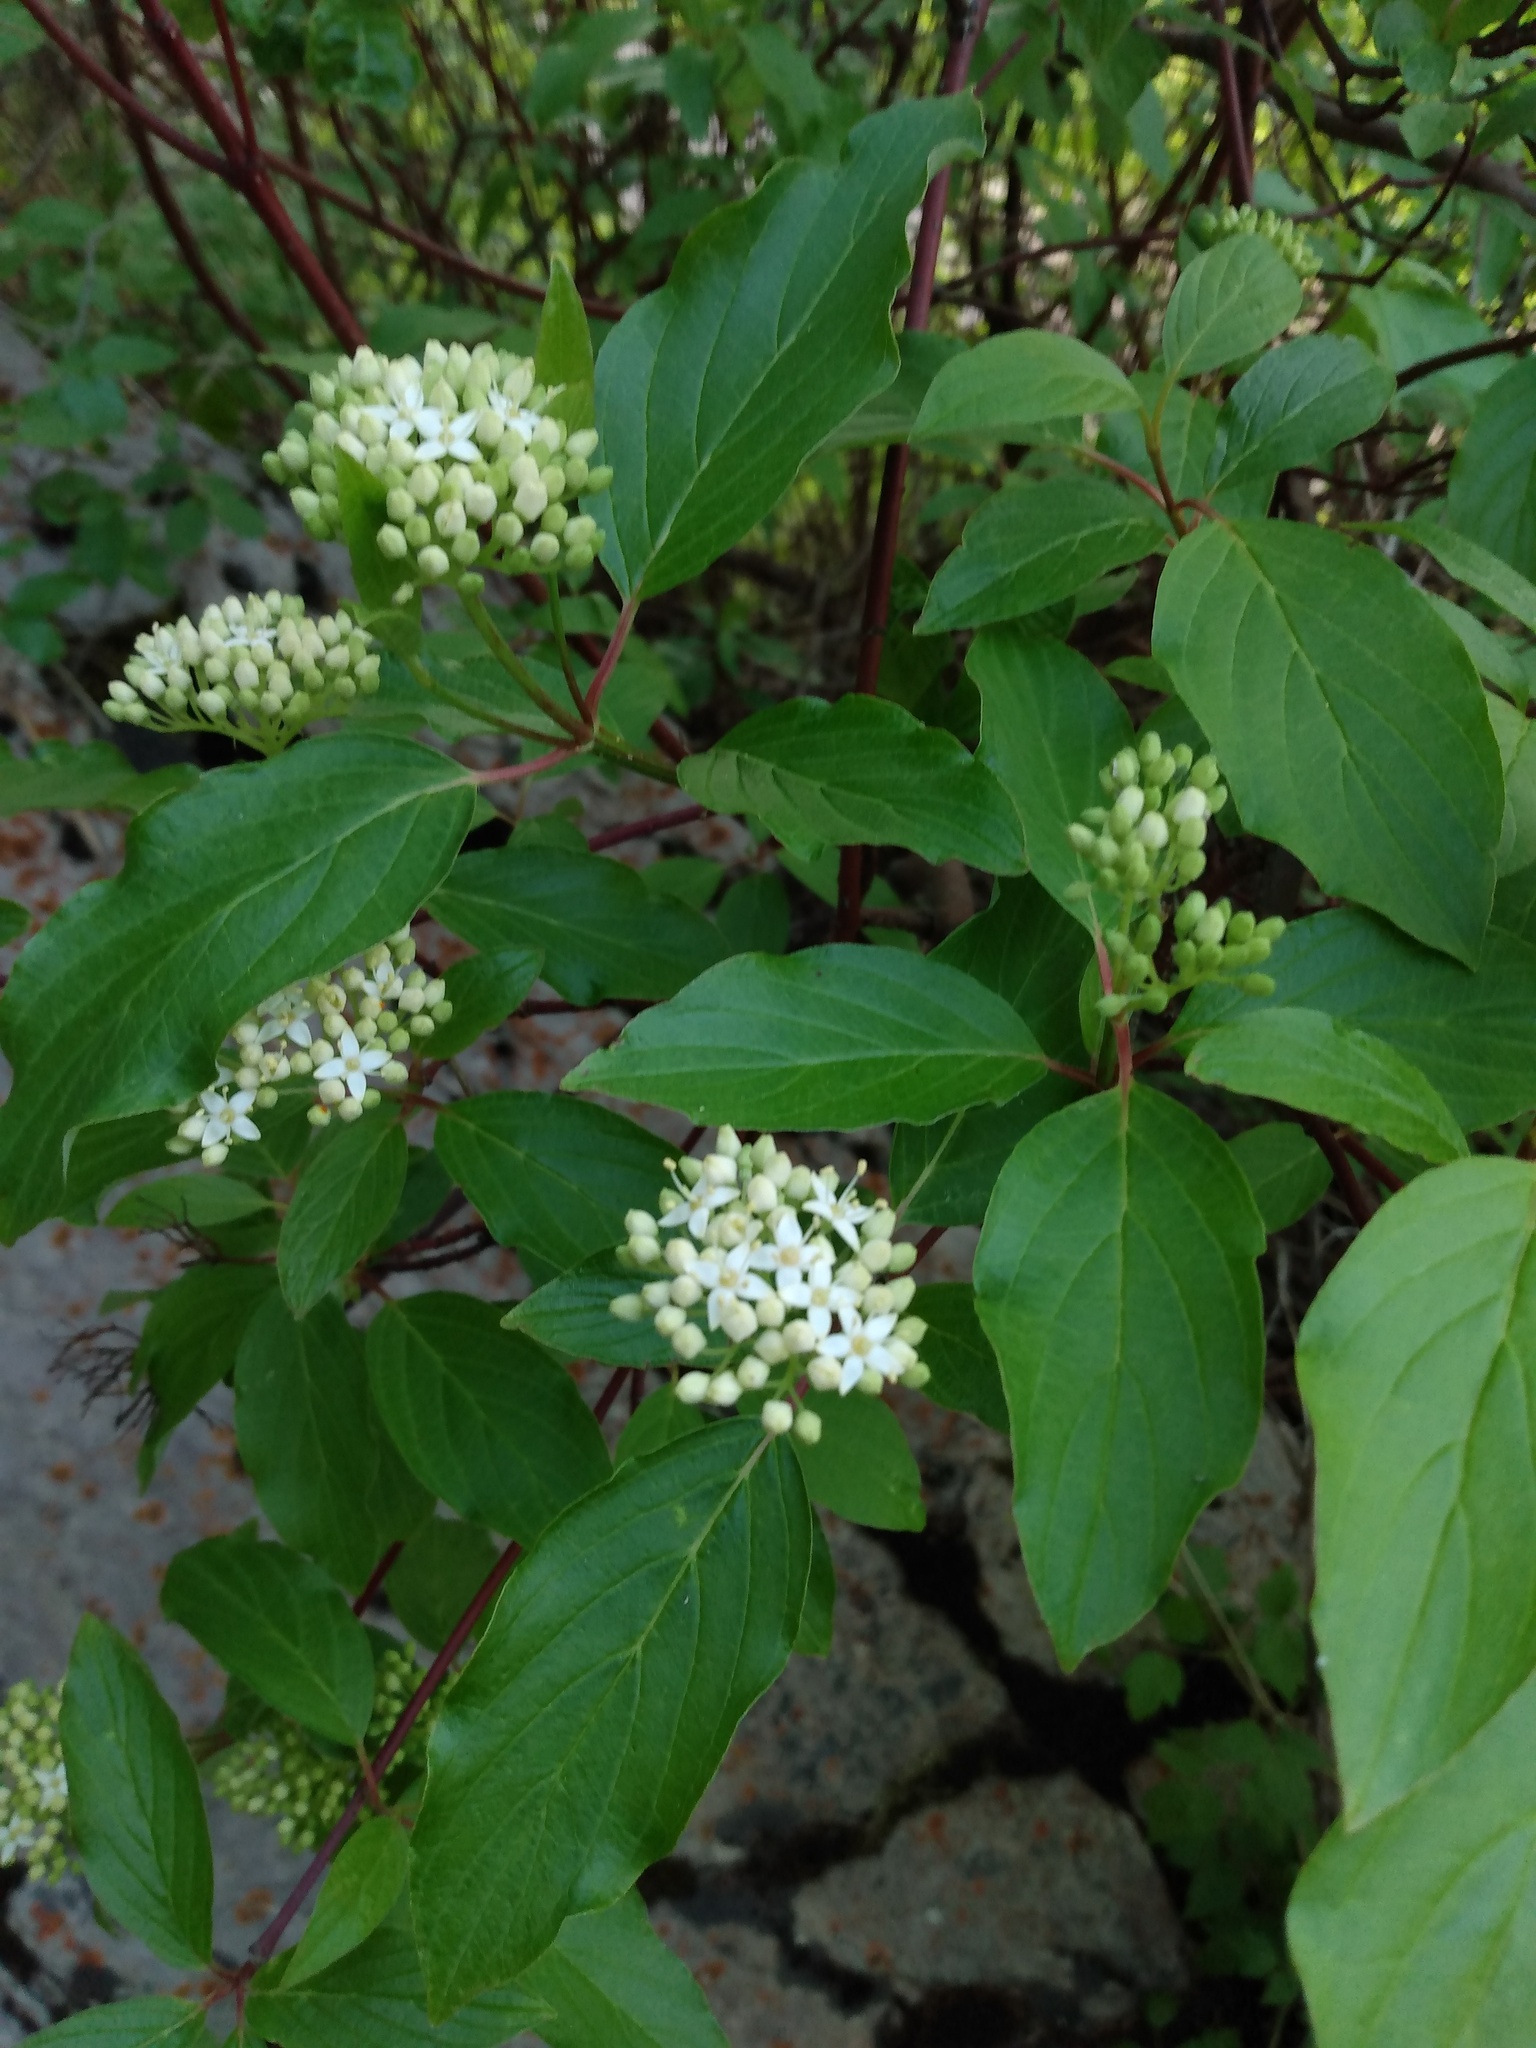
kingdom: Plantae
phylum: Tracheophyta
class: Magnoliopsida
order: Cornales
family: Cornaceae
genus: Cornus
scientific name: Cornus sericea
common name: Red-osier dogwood
